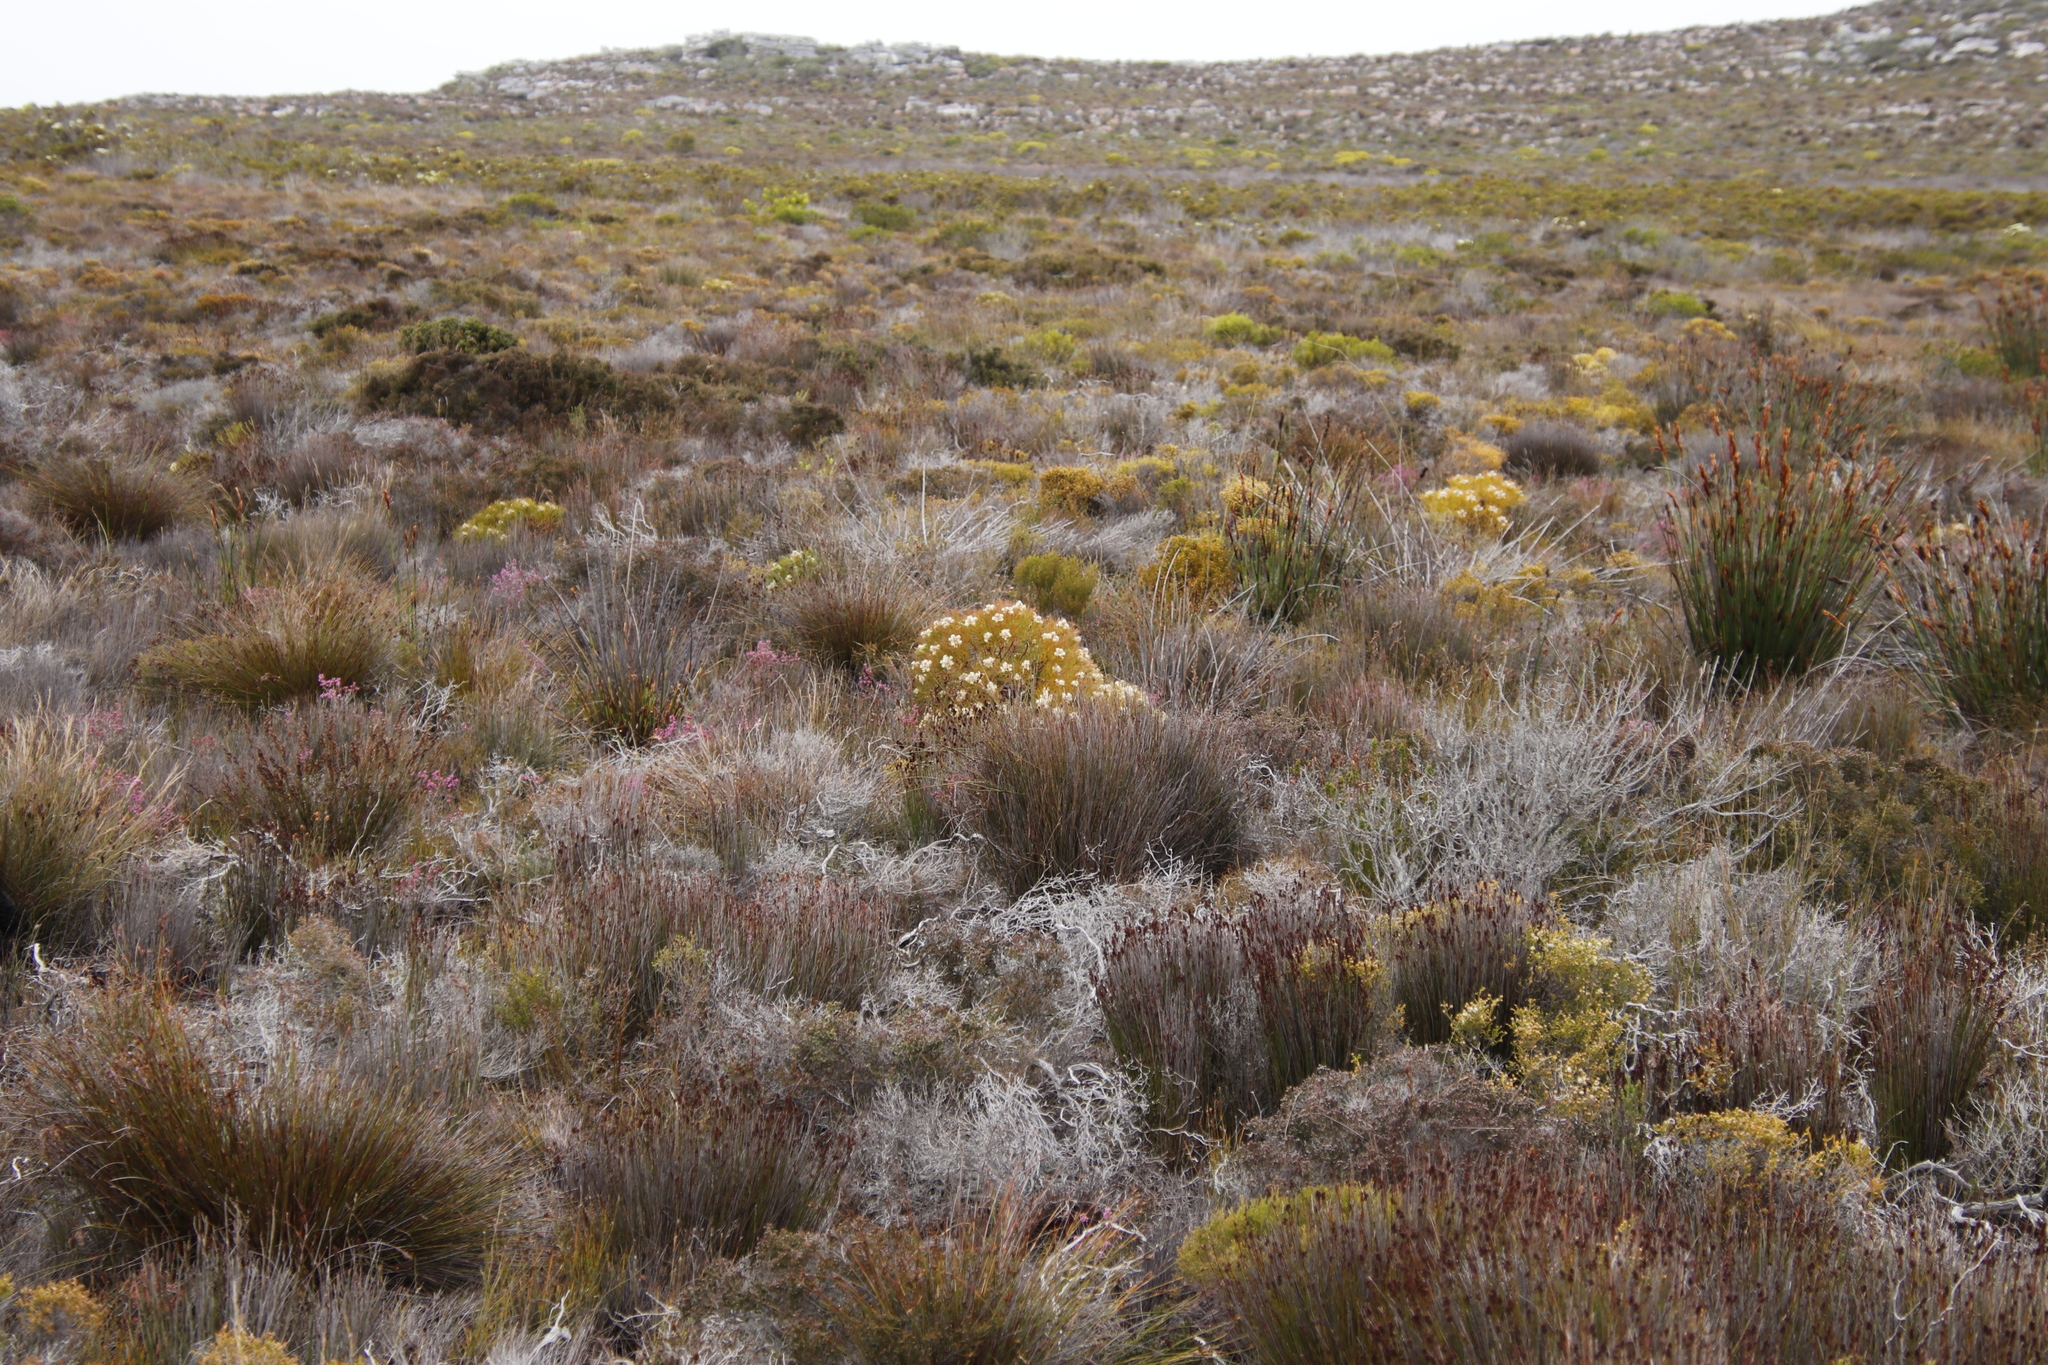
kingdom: Plantae
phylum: Tracheophyta
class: Magnoliopsida
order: Proteales
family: Proteaceae
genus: Serruria
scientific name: Serruria glomerata
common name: Cluster spiderhead
